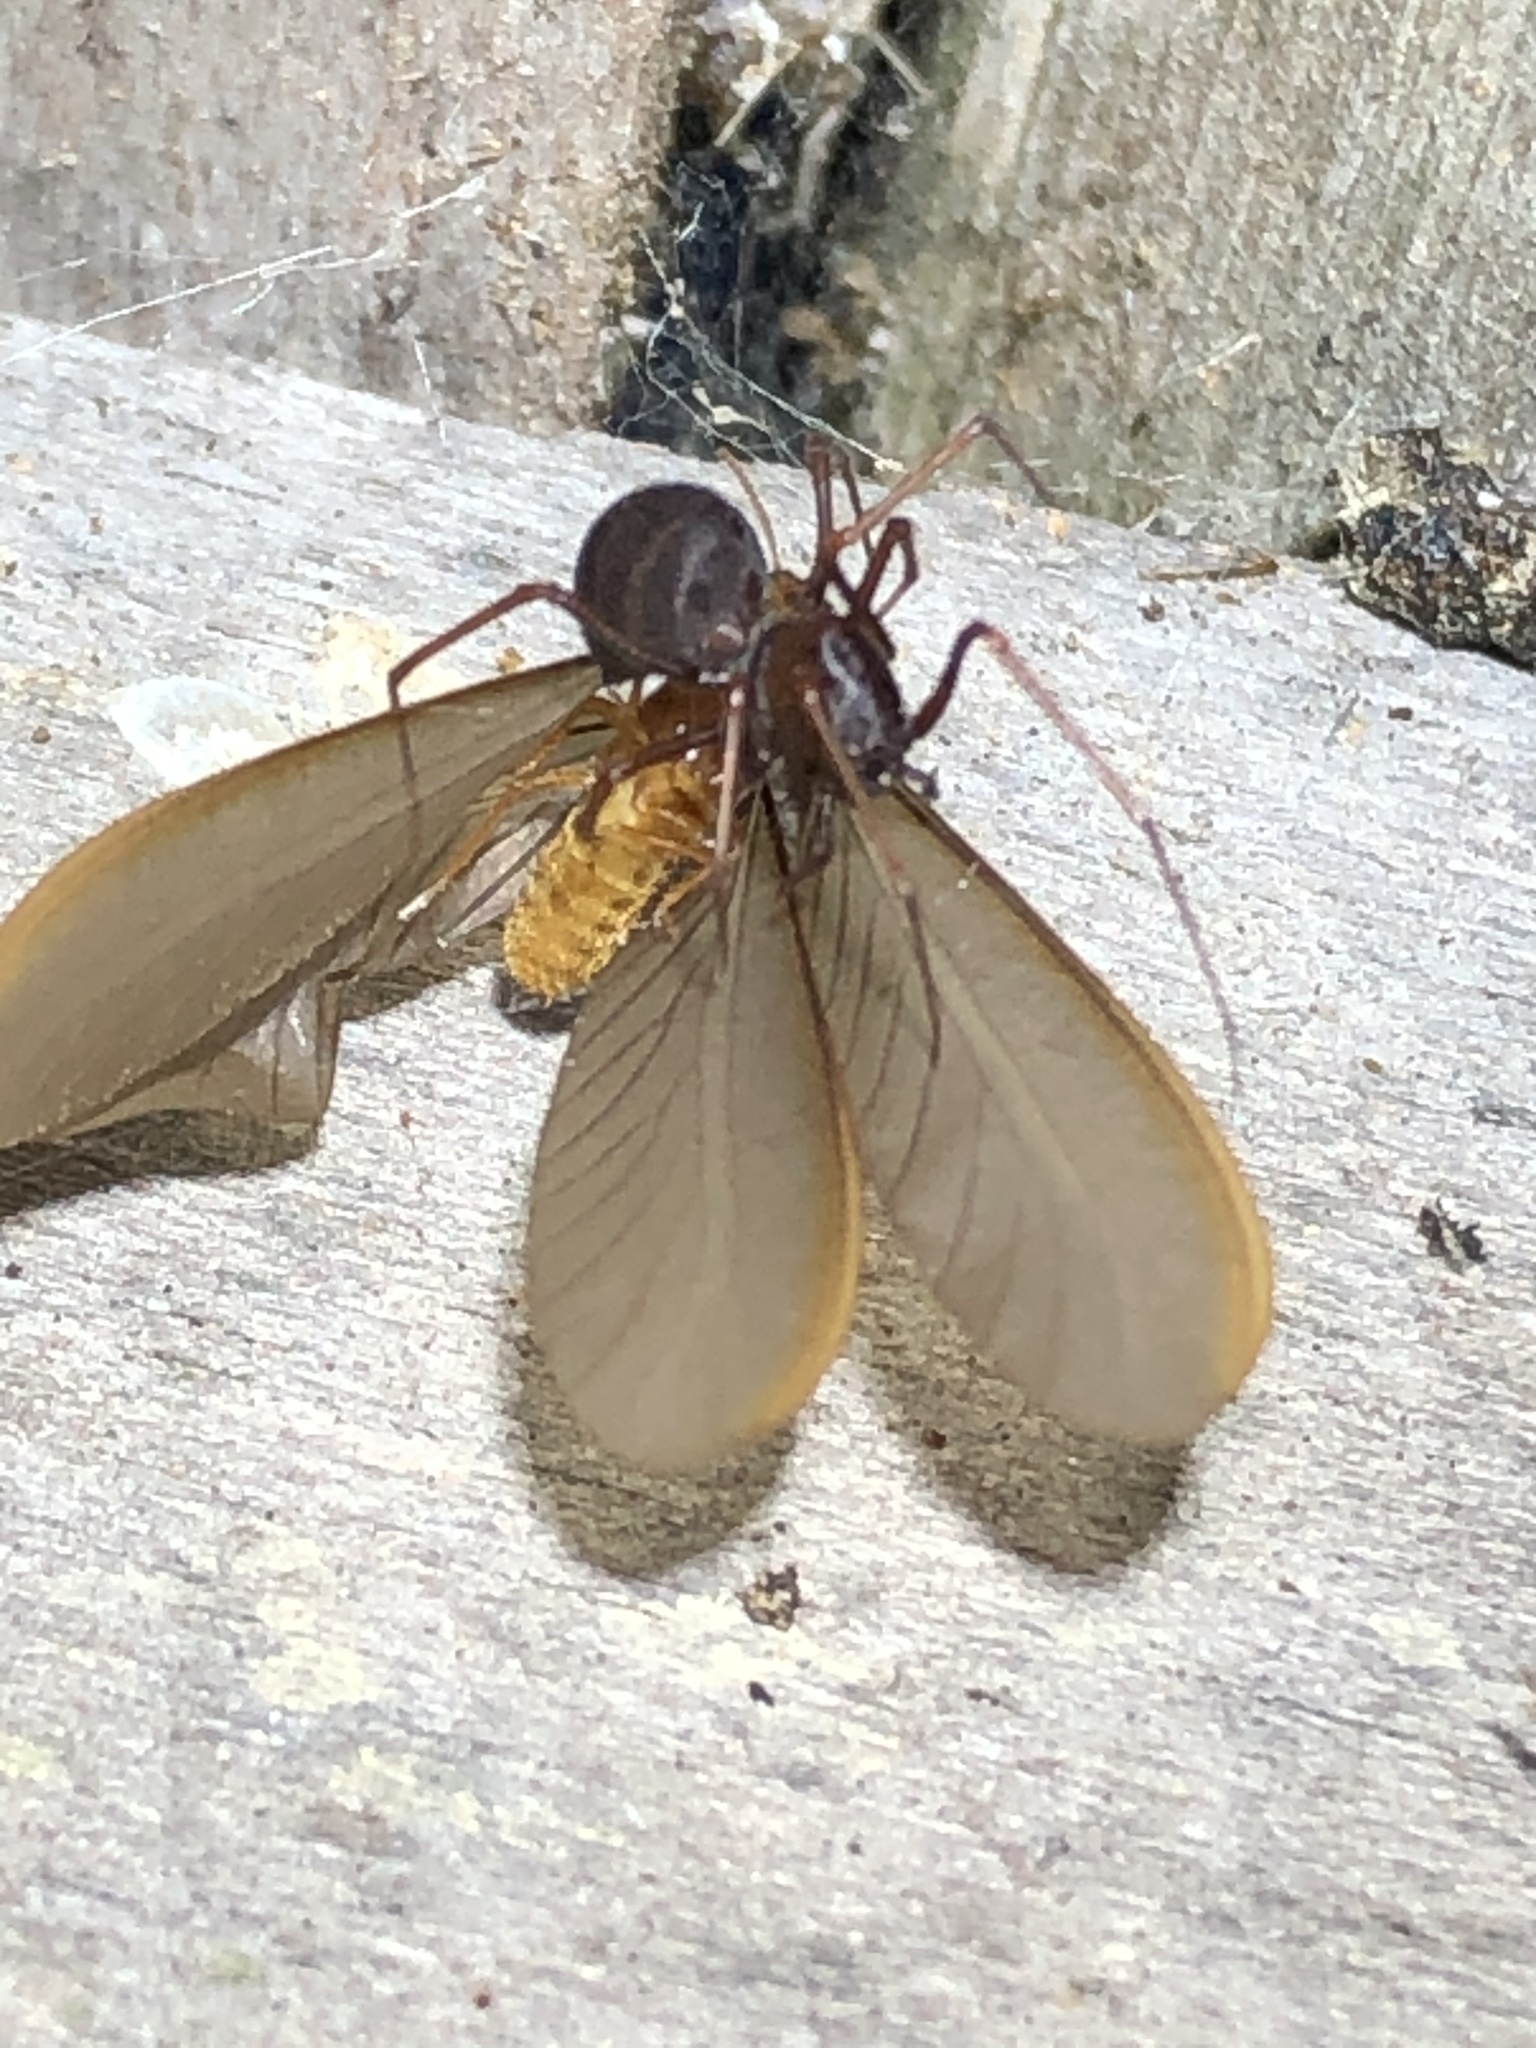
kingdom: Animalia
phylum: Arthropoda
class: Arachnida
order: Araneae
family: Scytodidae
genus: Scytodes
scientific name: Scytodes fusca
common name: Spitting spiders
